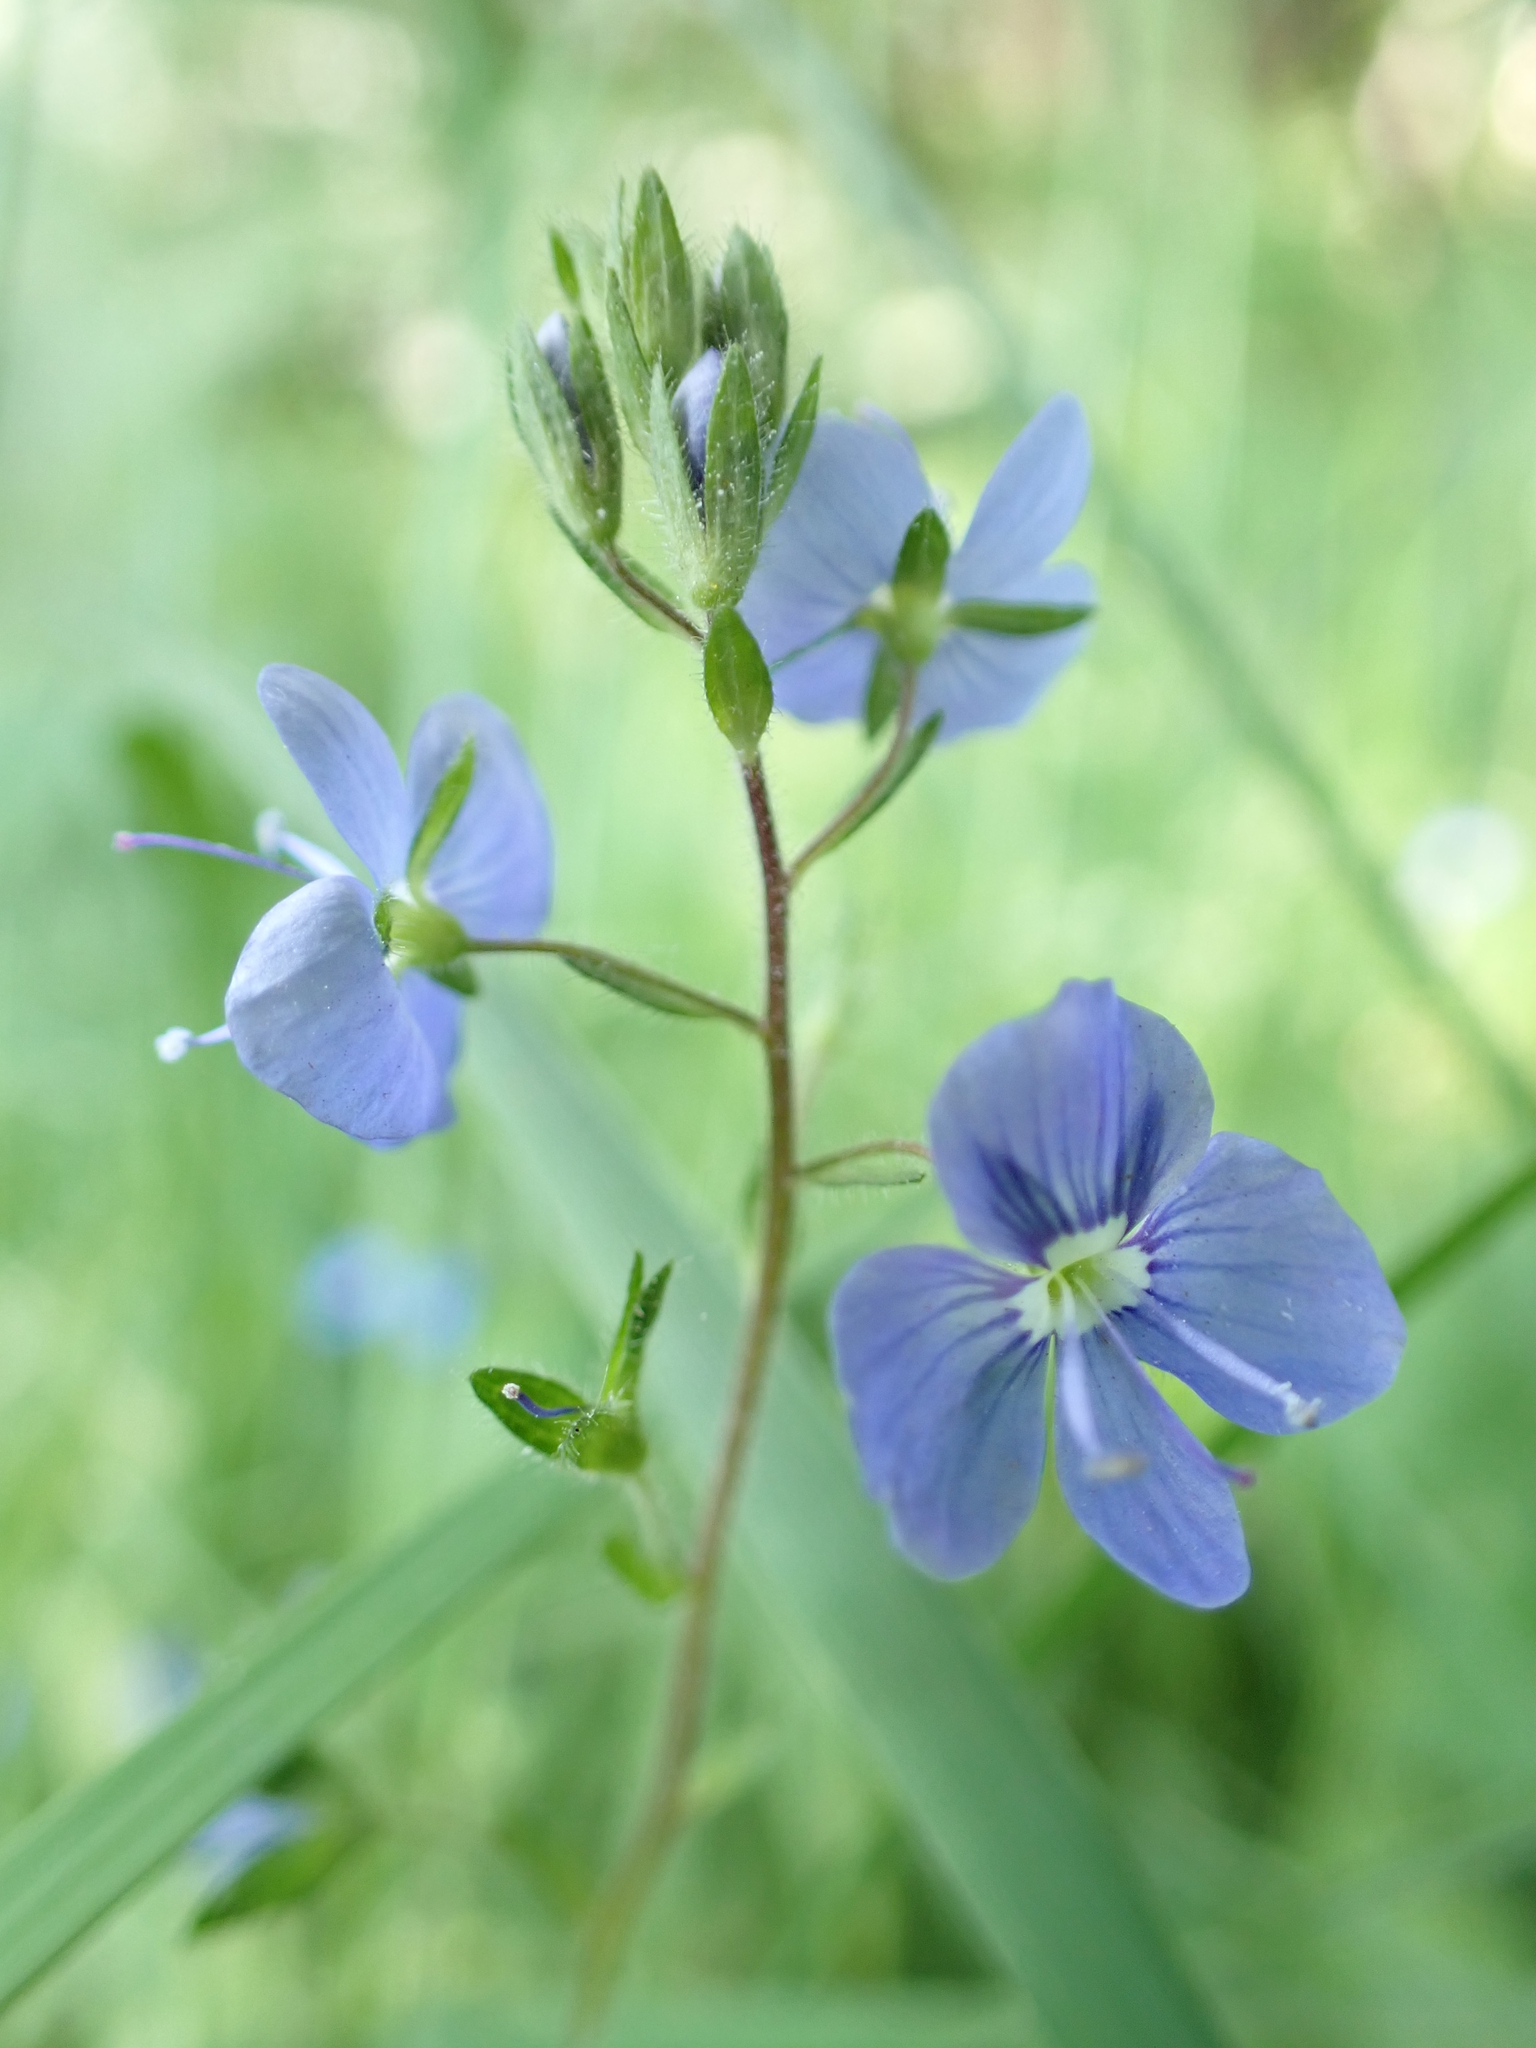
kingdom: Plantae
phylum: Tracheophyta
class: Magnoliopsida
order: Lamiales
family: Plantaginaceae
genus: Veronica
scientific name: Veronica chamaedrys
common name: Germander speedwell
